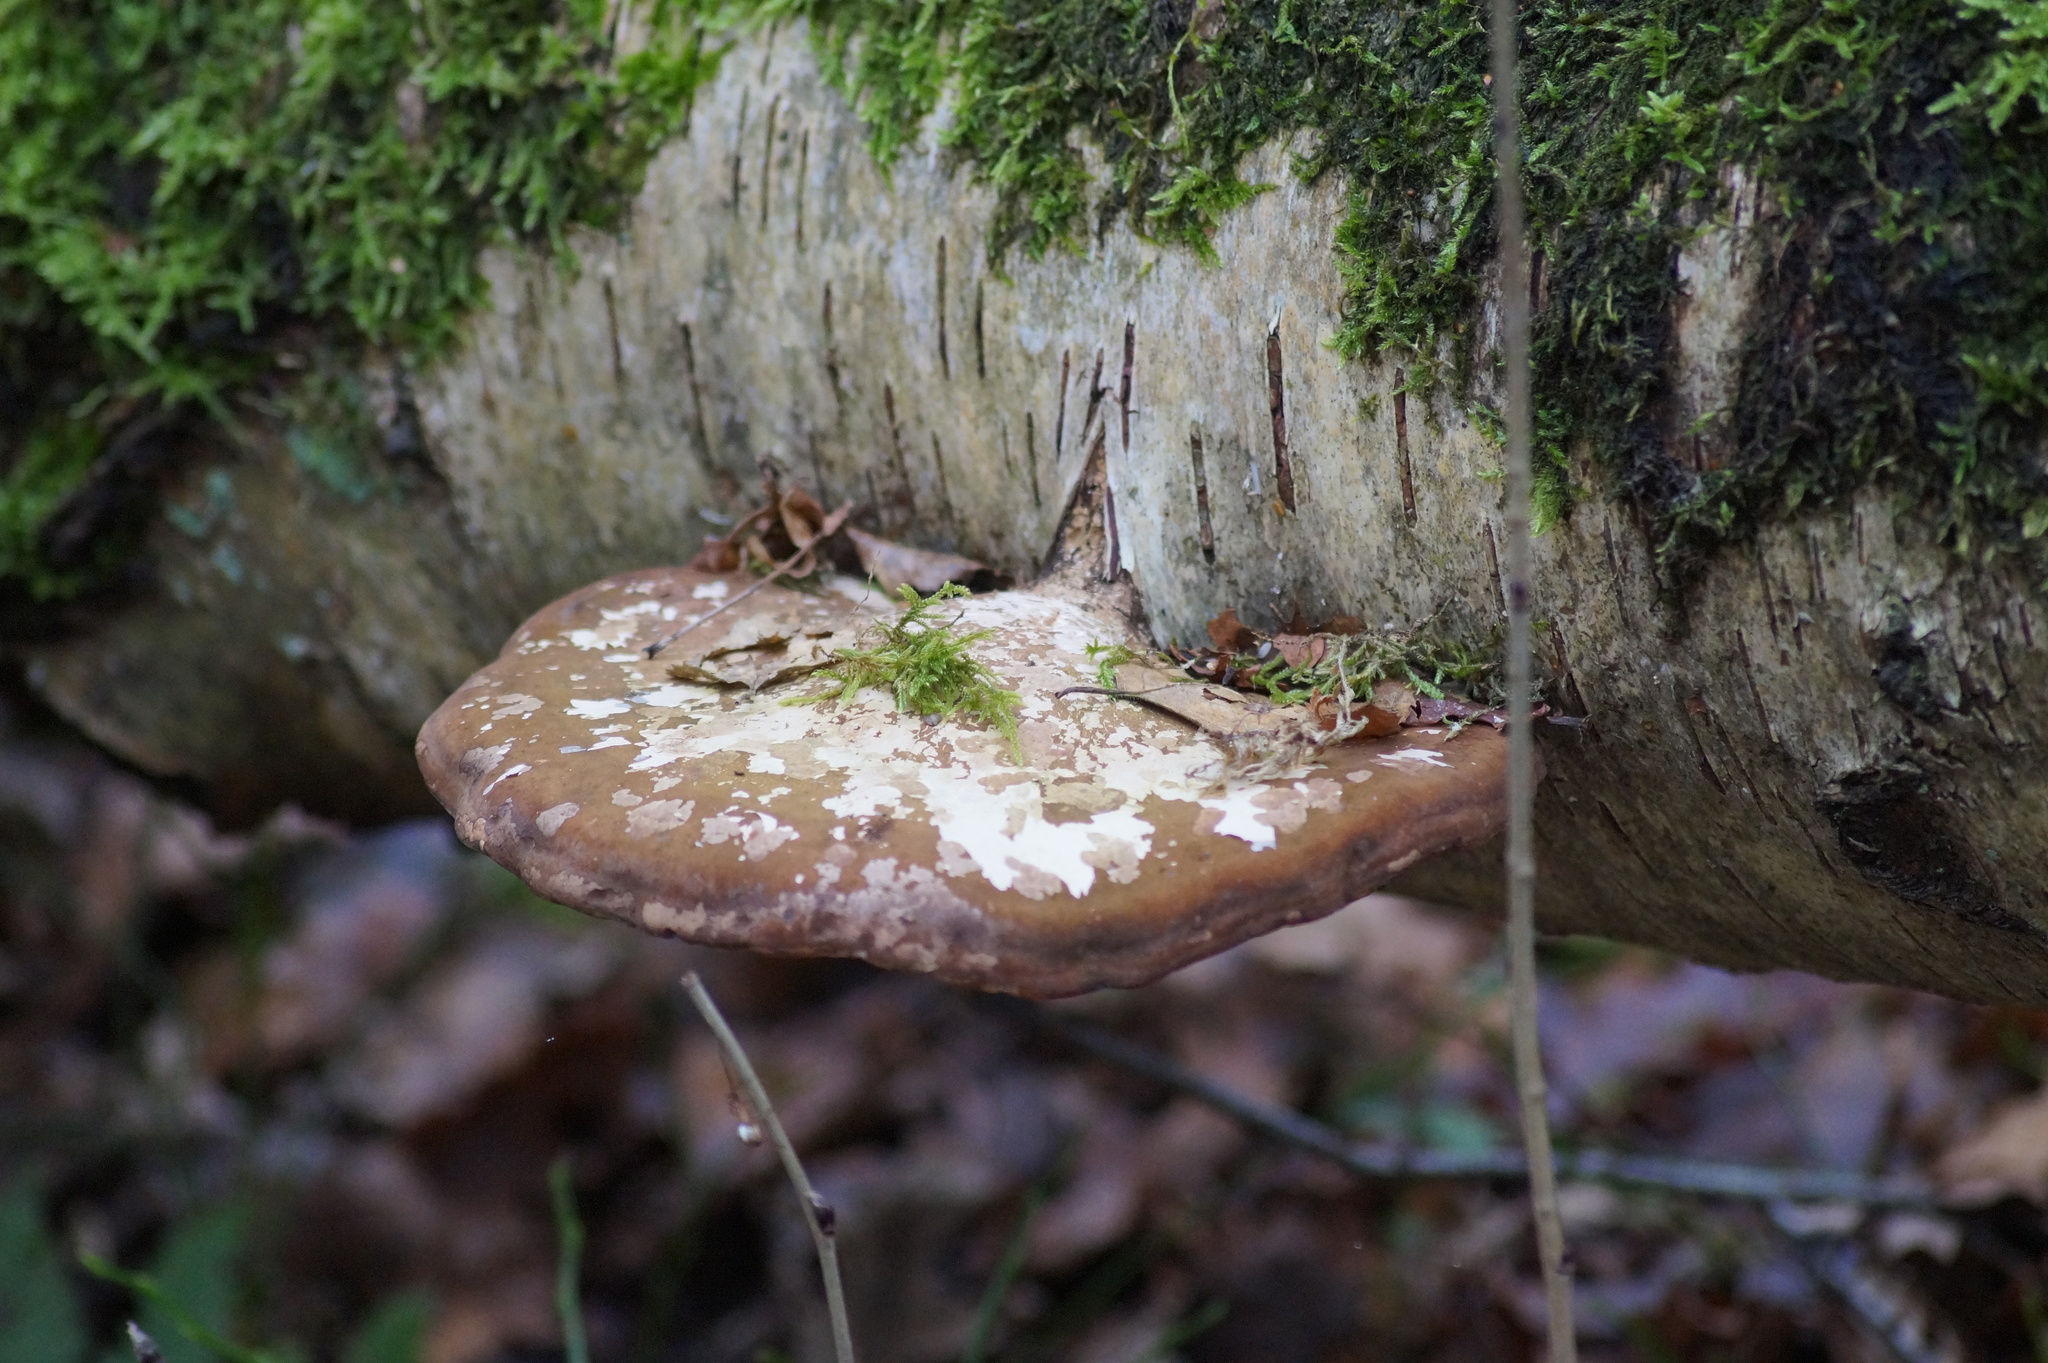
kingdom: Fungi
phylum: Basidiomycota
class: Agaricomycetes
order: Polyporales
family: Fomitopsidaceae
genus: Fomitopsis
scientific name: Fomitopsis betulina
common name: Birch polypore
